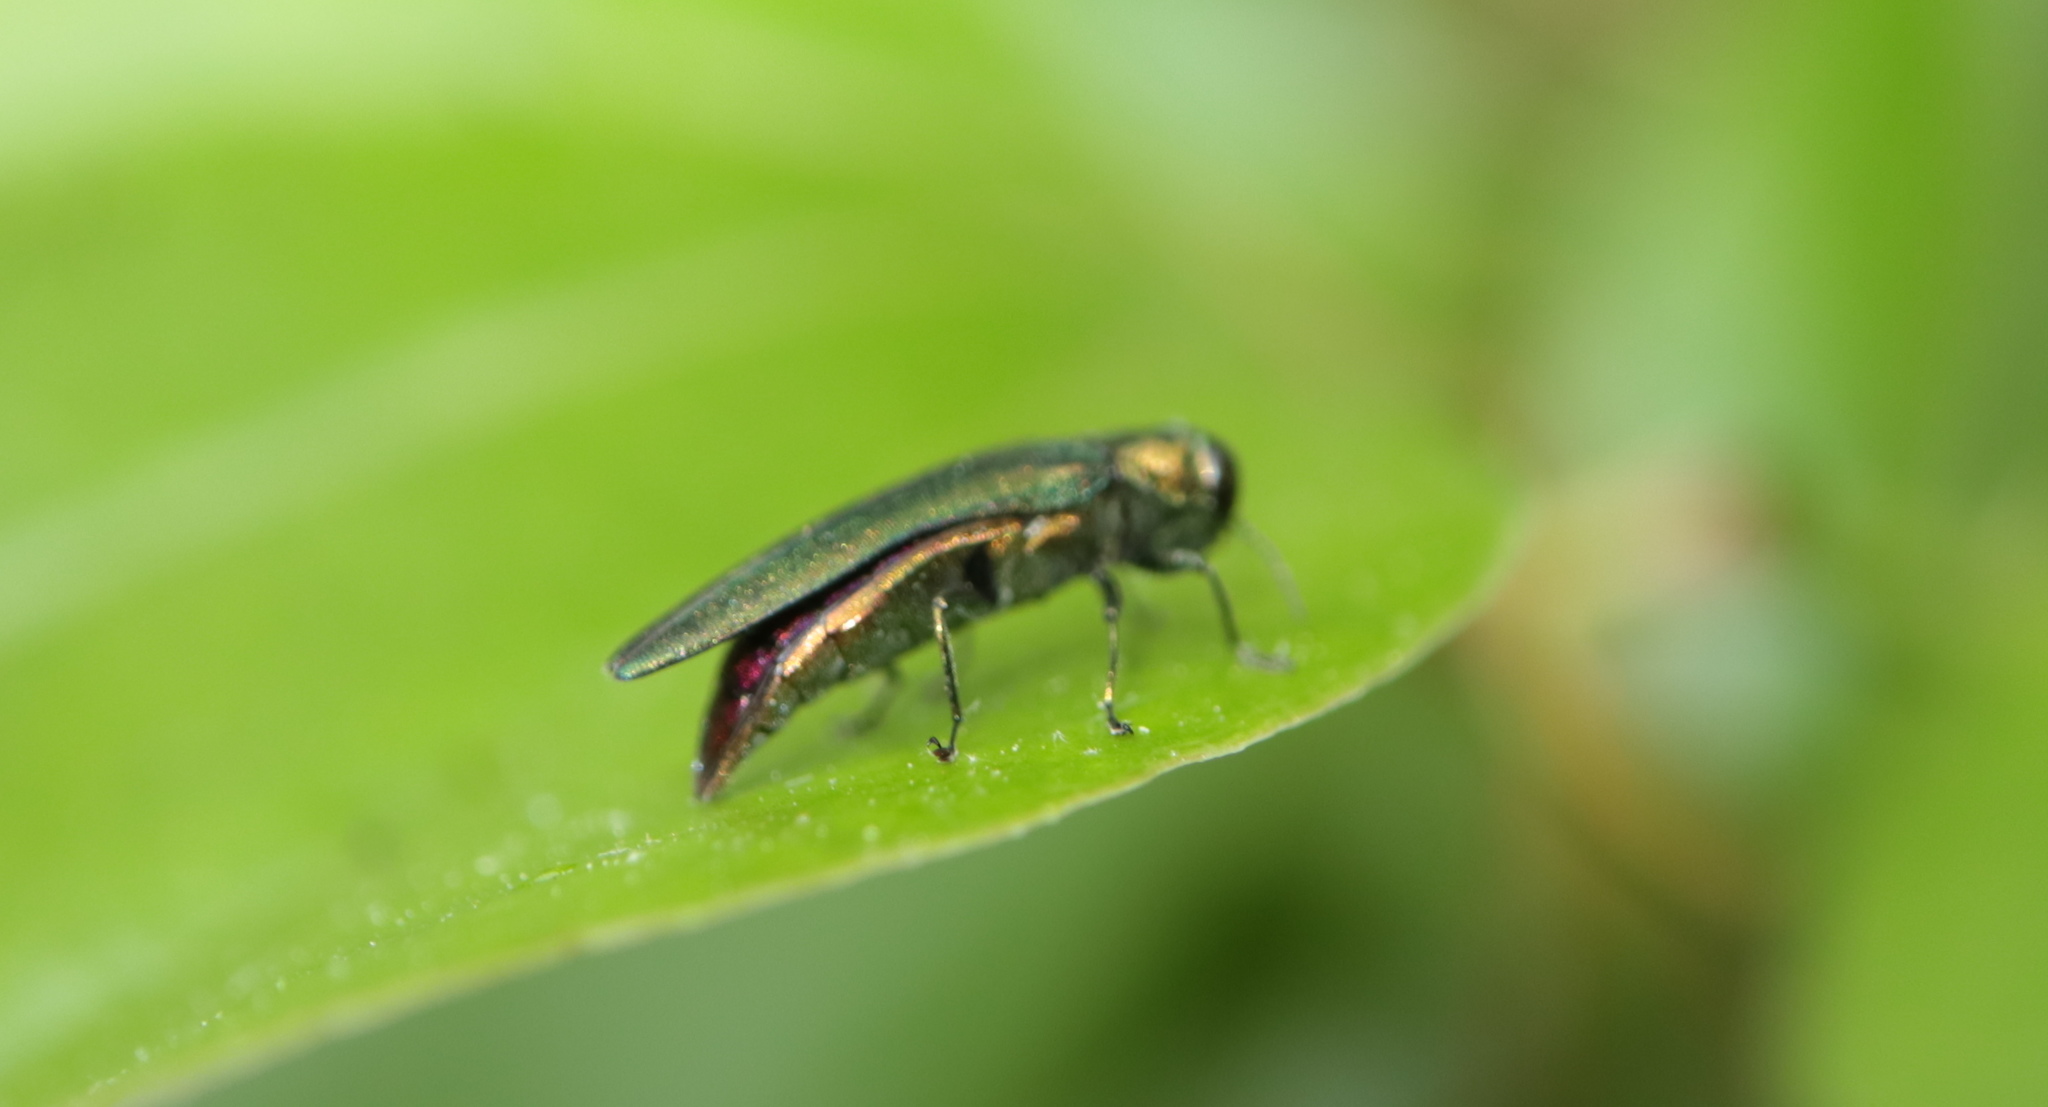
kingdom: Animalia
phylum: Arthropoda
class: Insecta
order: Coleoptera
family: Buprestidae
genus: Agrilus
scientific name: Agrilus planipennis
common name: Emerald ash borer
